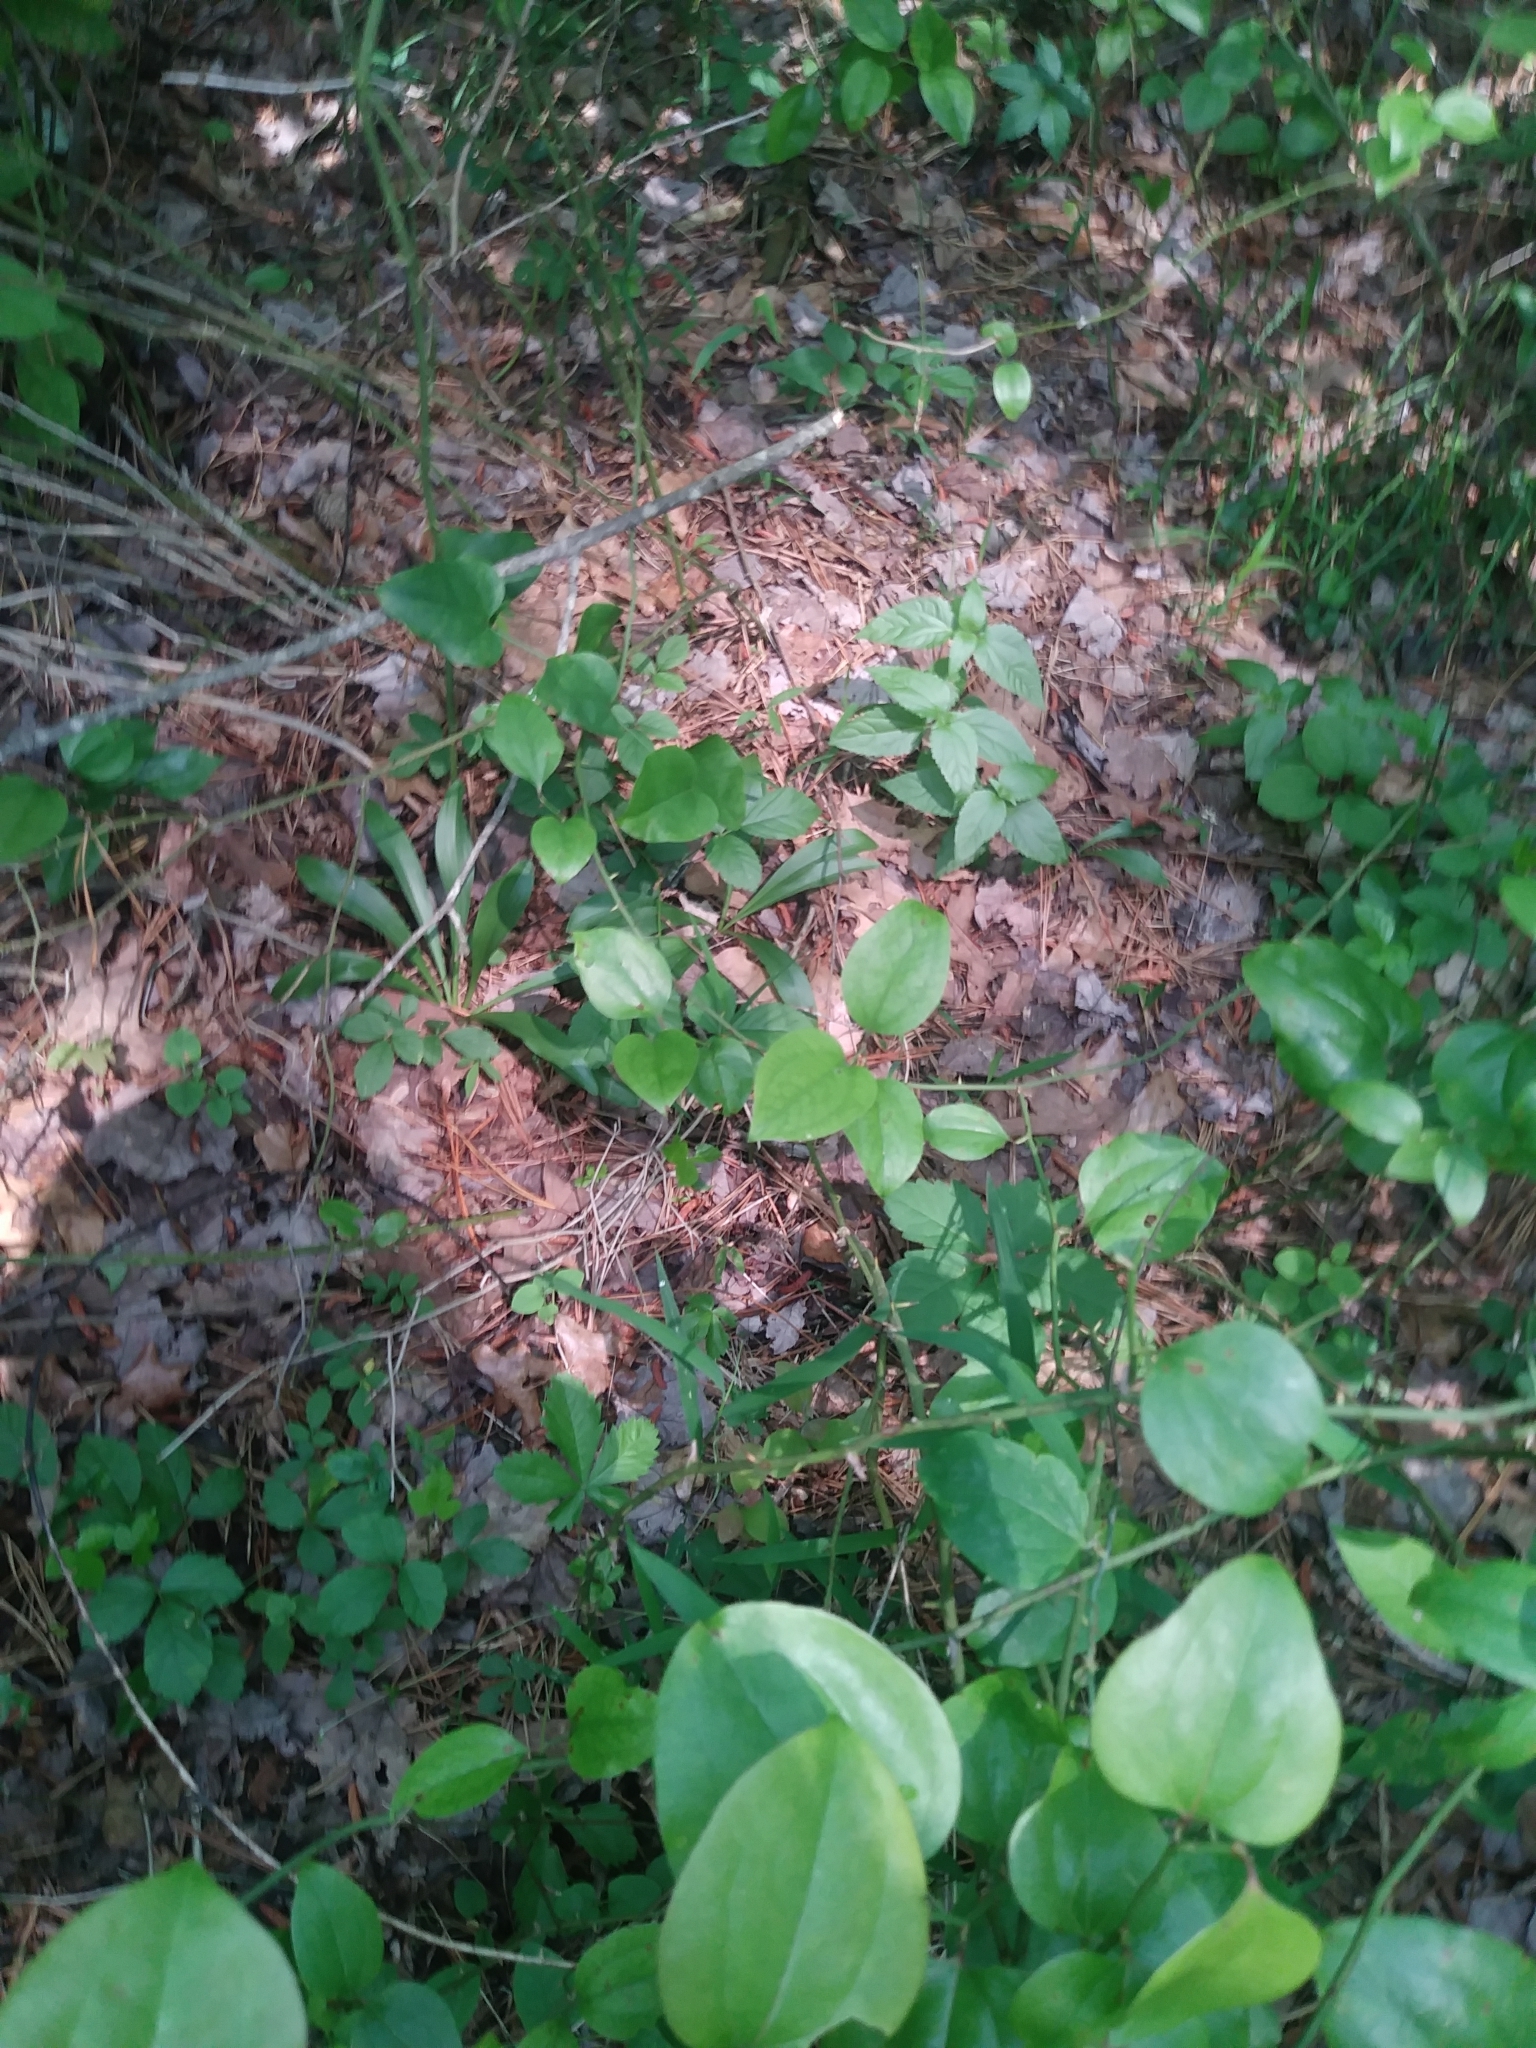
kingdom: Plantae
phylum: Tracheophyta
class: Liliopsida
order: Liliales
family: Melanthiaceae
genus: Chamaelirium
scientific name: Chamaelirium luteum
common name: Fairy-wand
